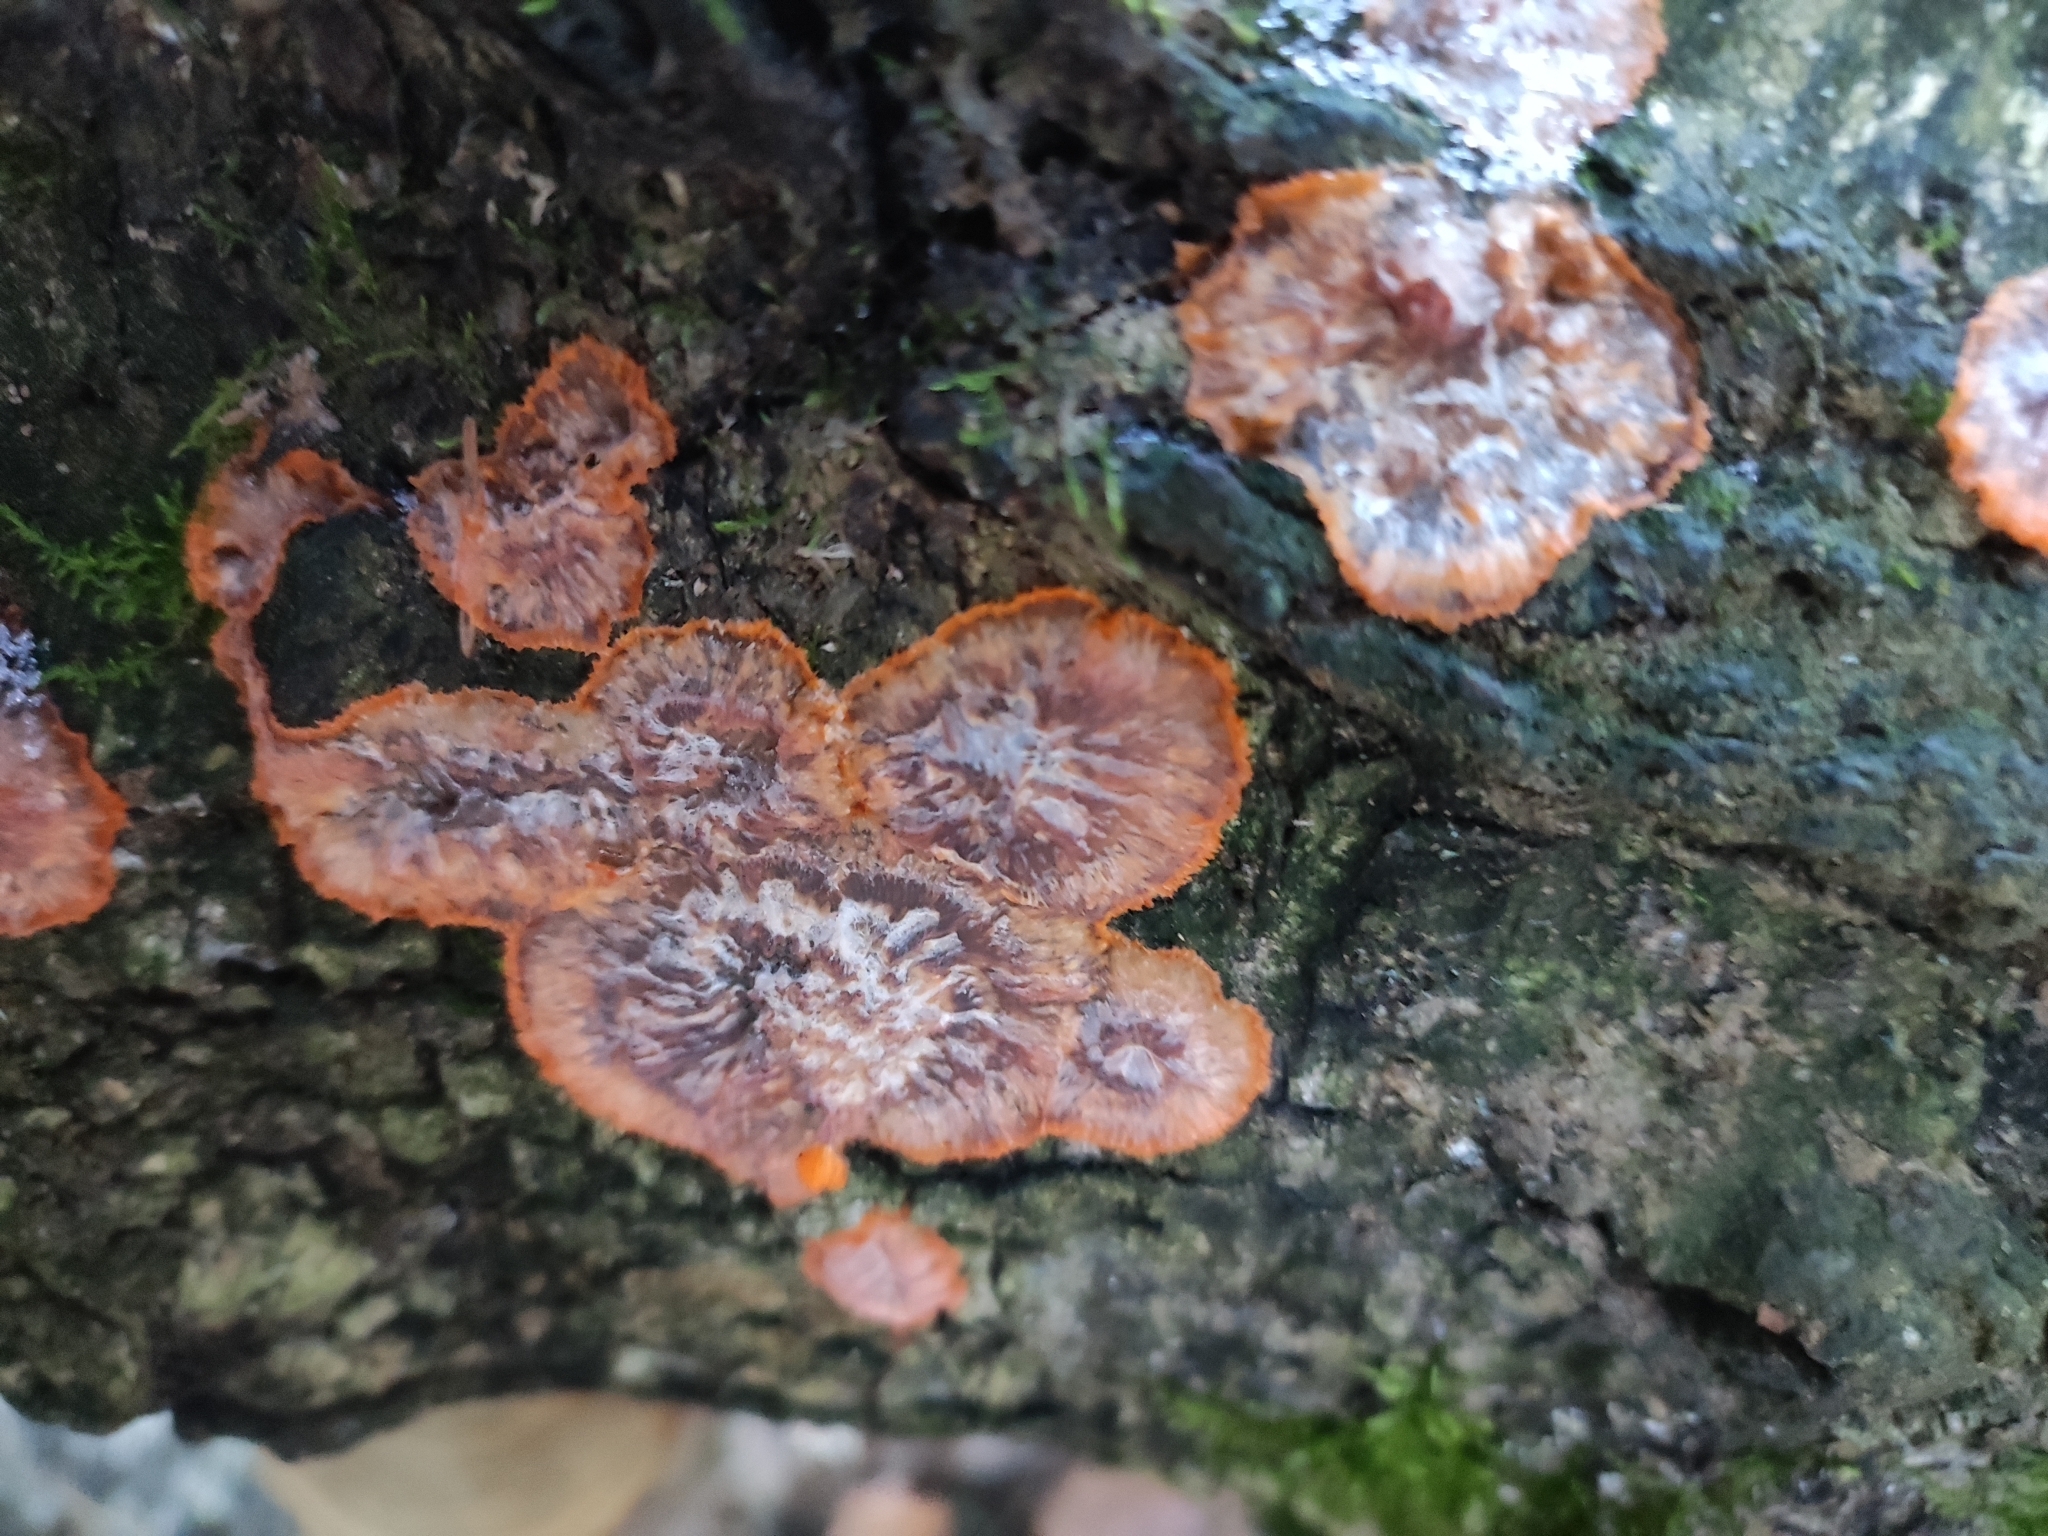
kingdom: Fungi
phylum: Basidiomycota
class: Agaricomycetes
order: Polyporales
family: Meruliaceae
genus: Phlebia
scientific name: Phlebia radiata
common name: Wrinkled crust
